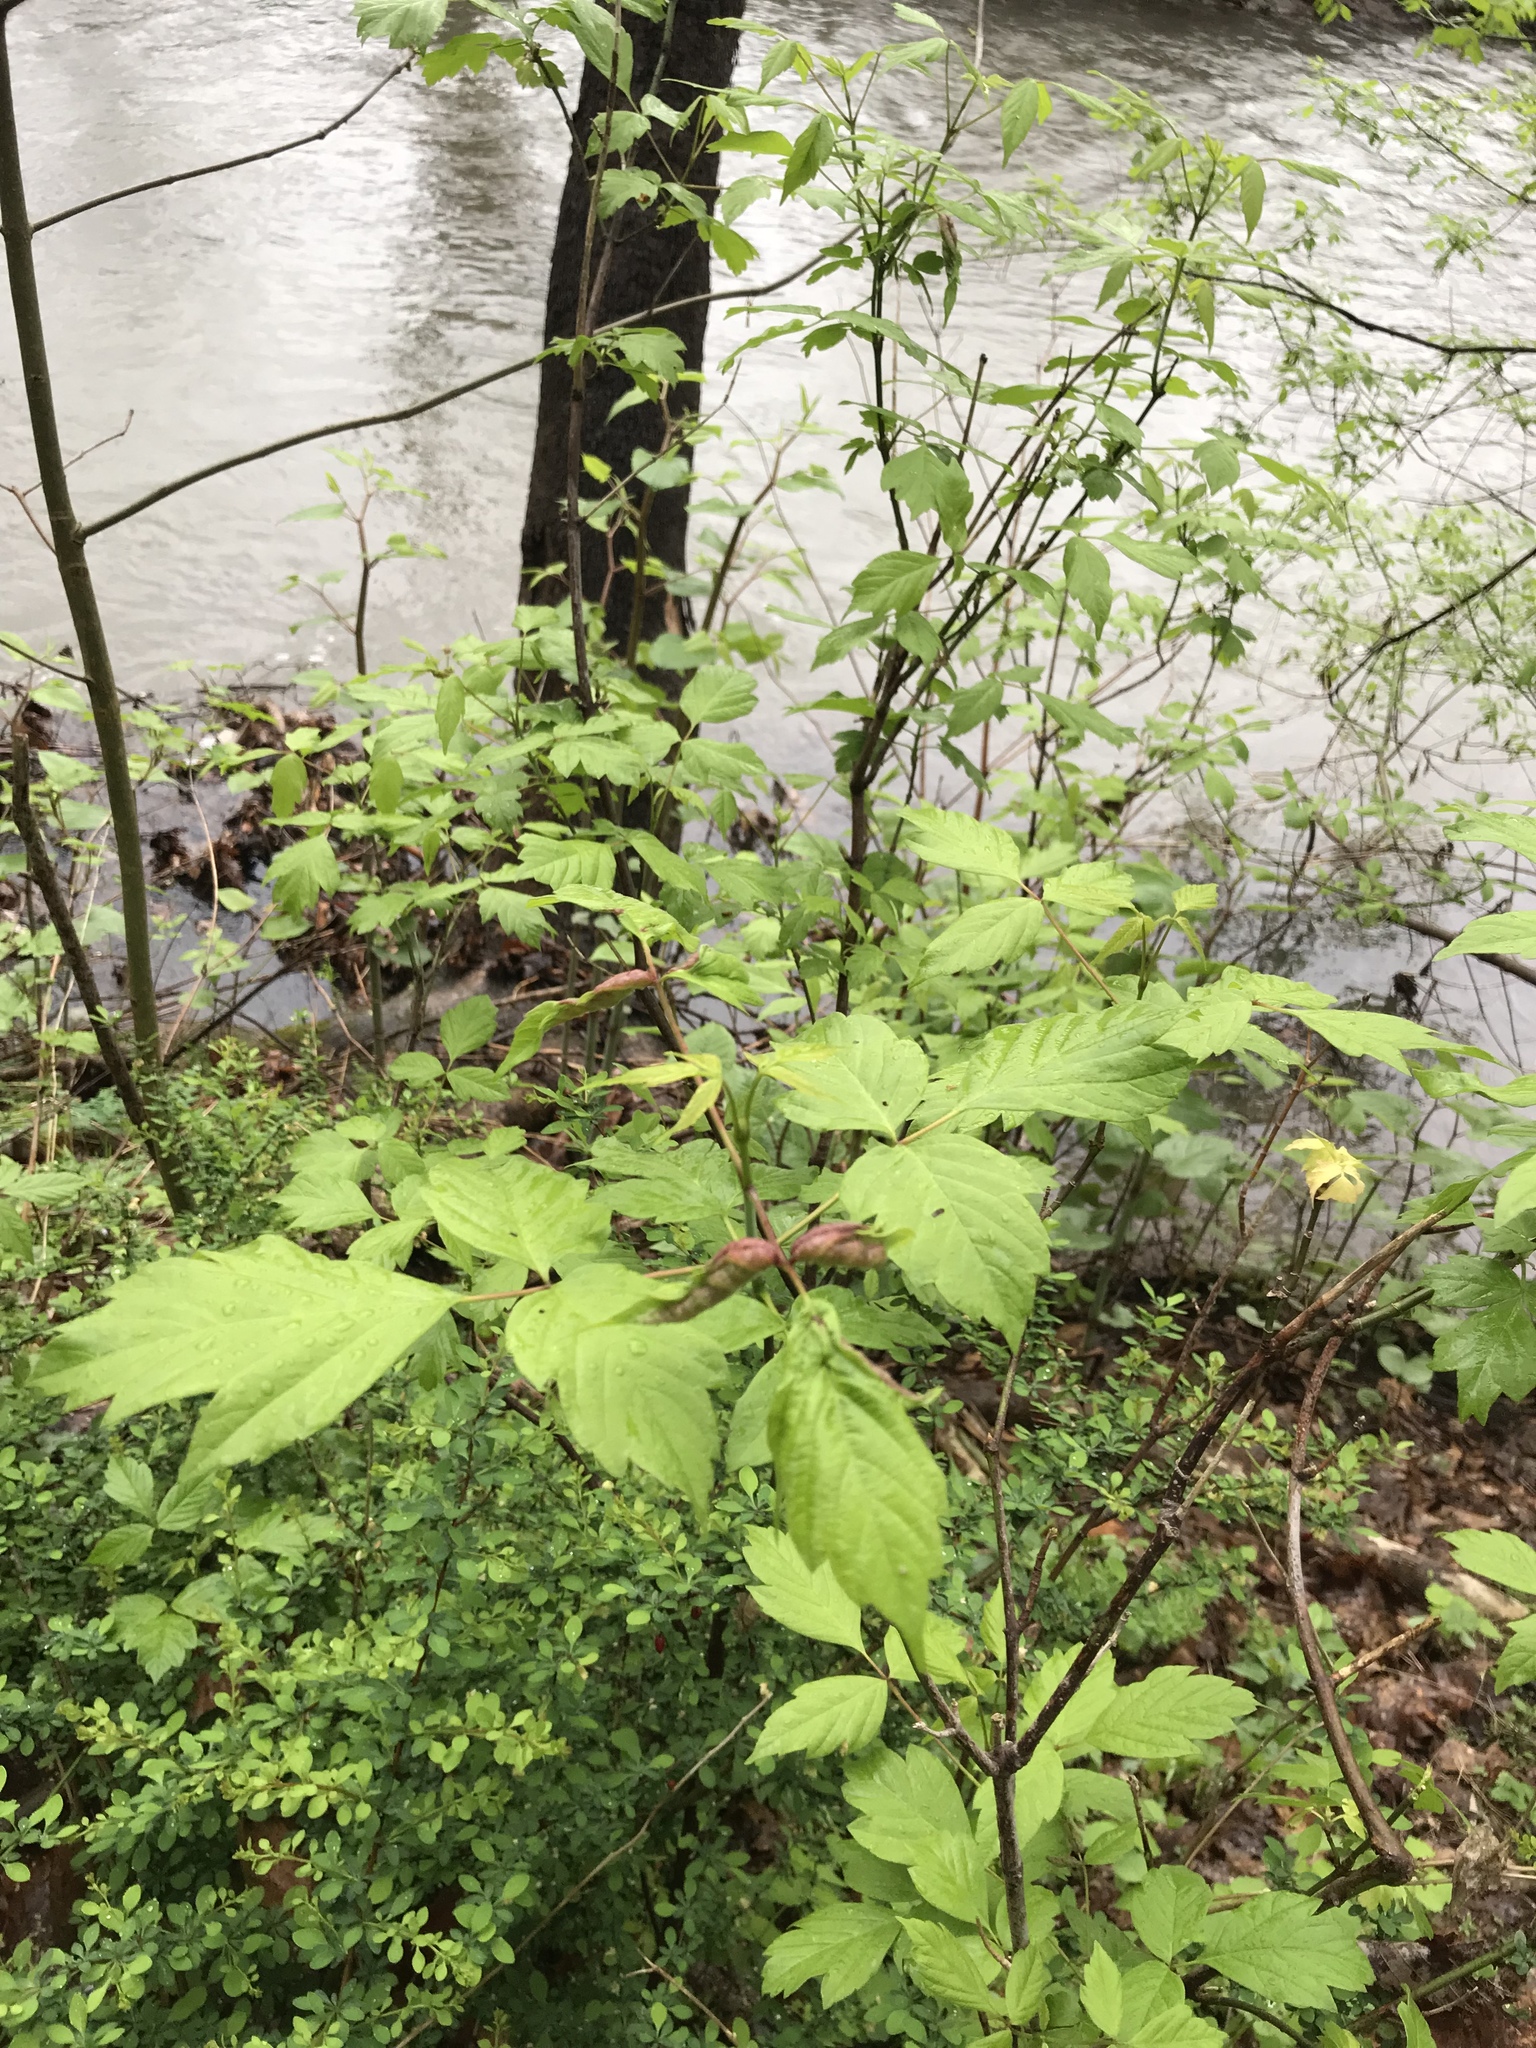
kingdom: Plantae
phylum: Tracheophyta
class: Magnoliopsida
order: Sapindales
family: Sapindaceae
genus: Acer
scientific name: Acer negundo
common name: Ashleaf maple
